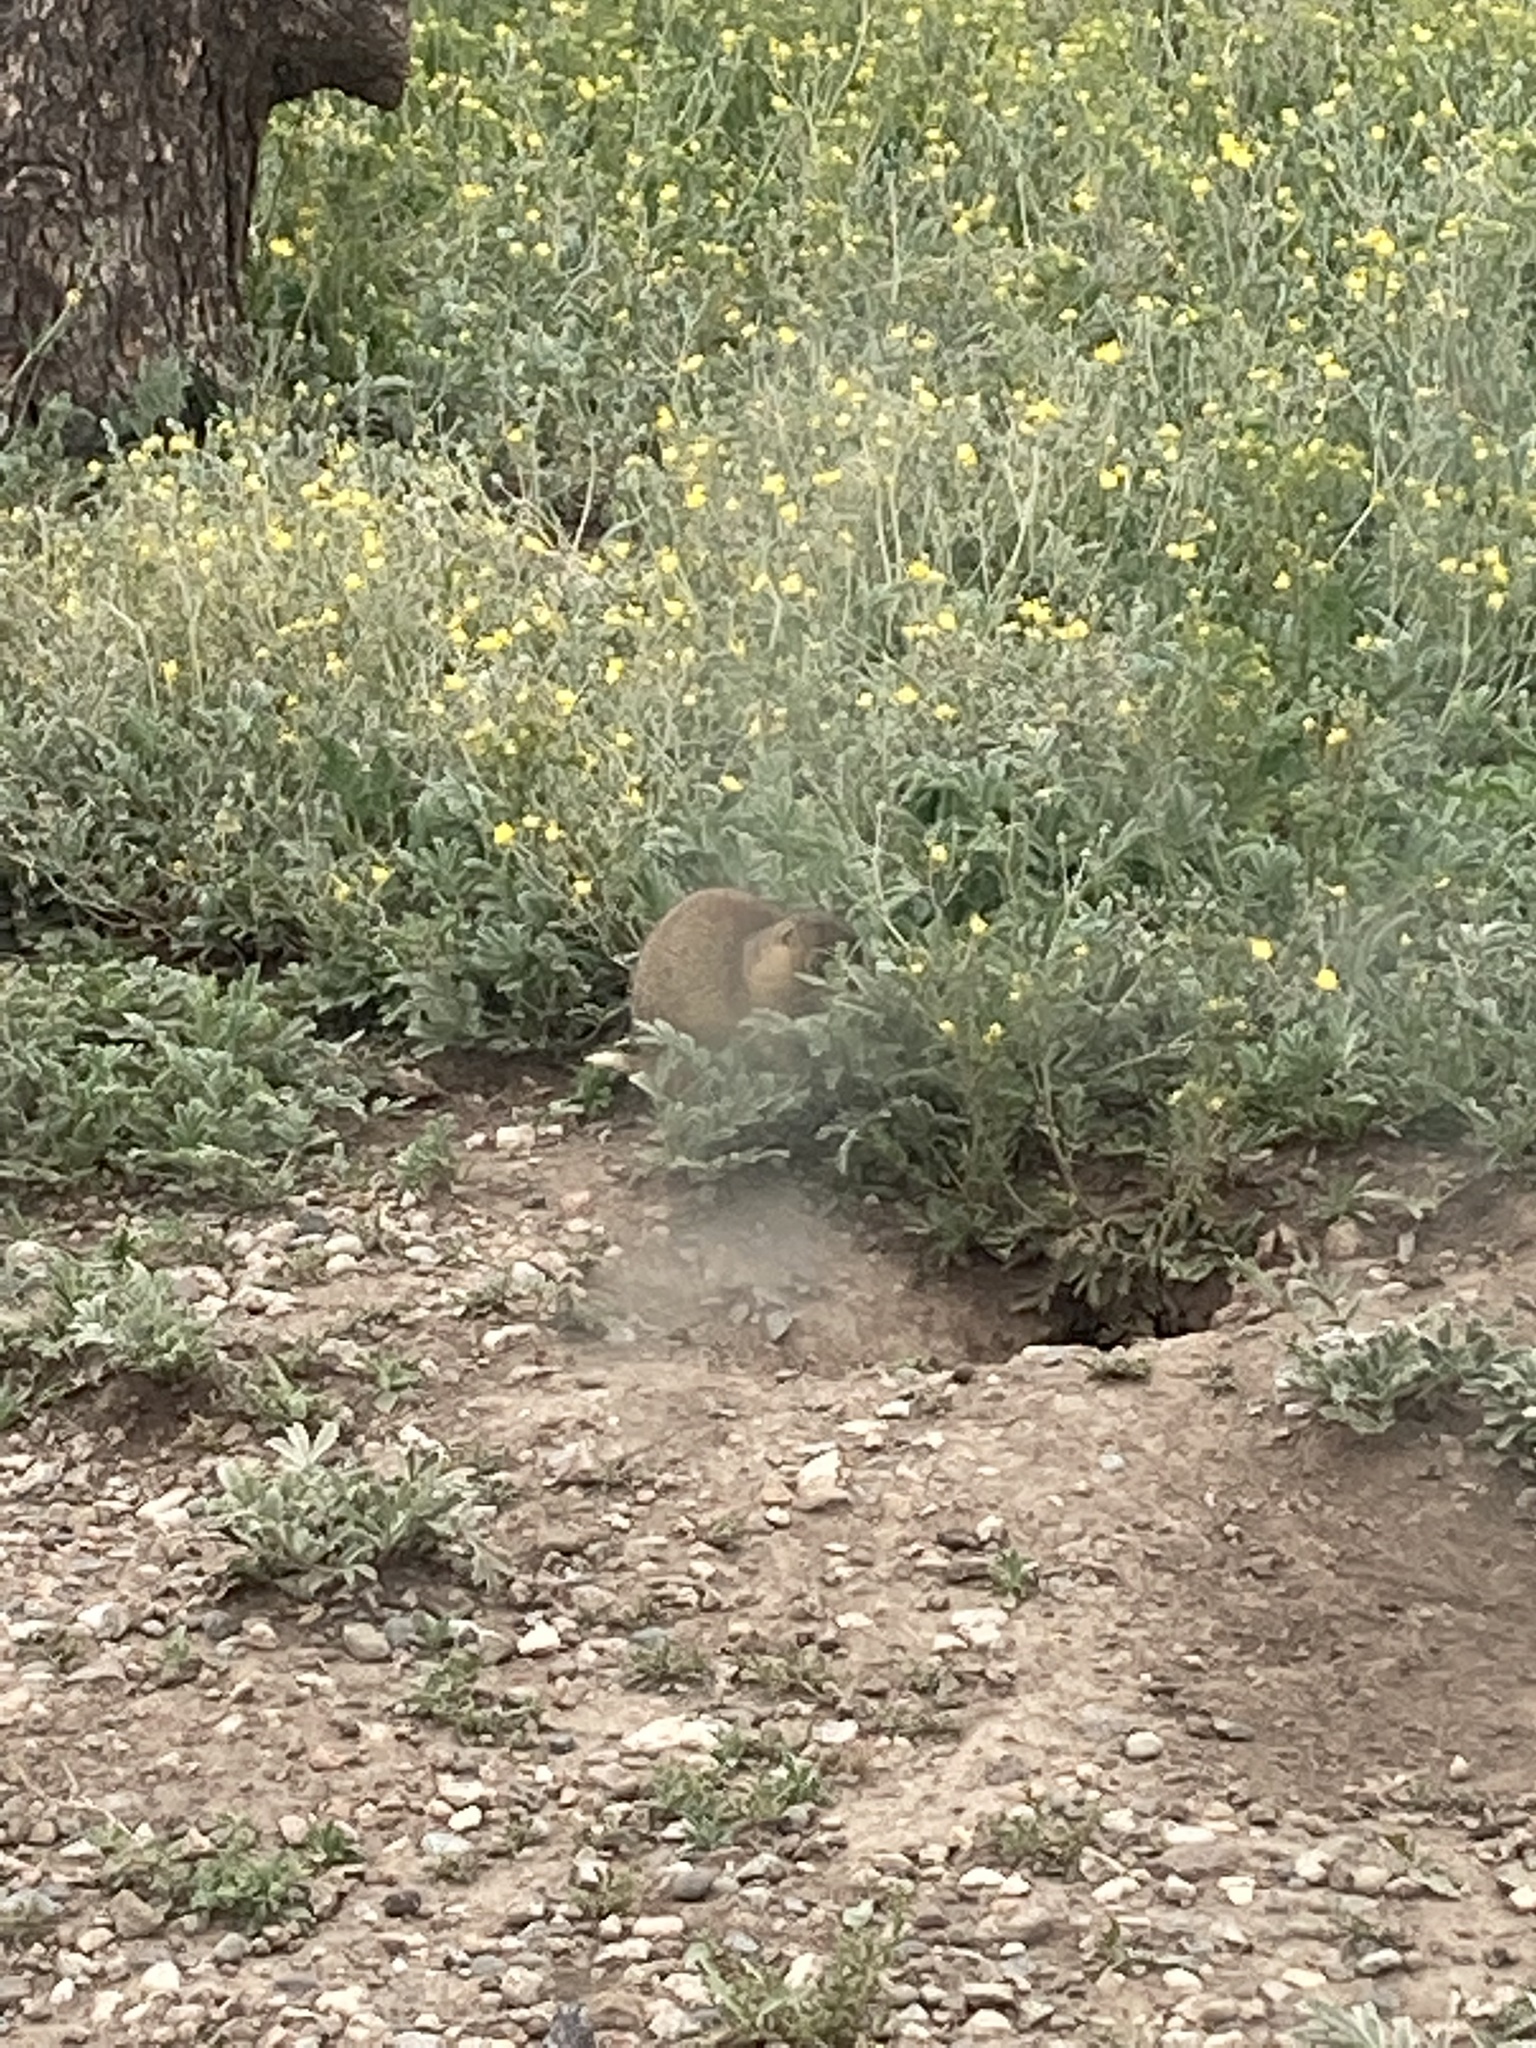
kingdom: Animalia
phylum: Chordata
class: Mammalia
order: Rodentia
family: Sciuridae
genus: Cynomys
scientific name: Cynomys gunnisoni
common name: Gunnison's prairie dog
